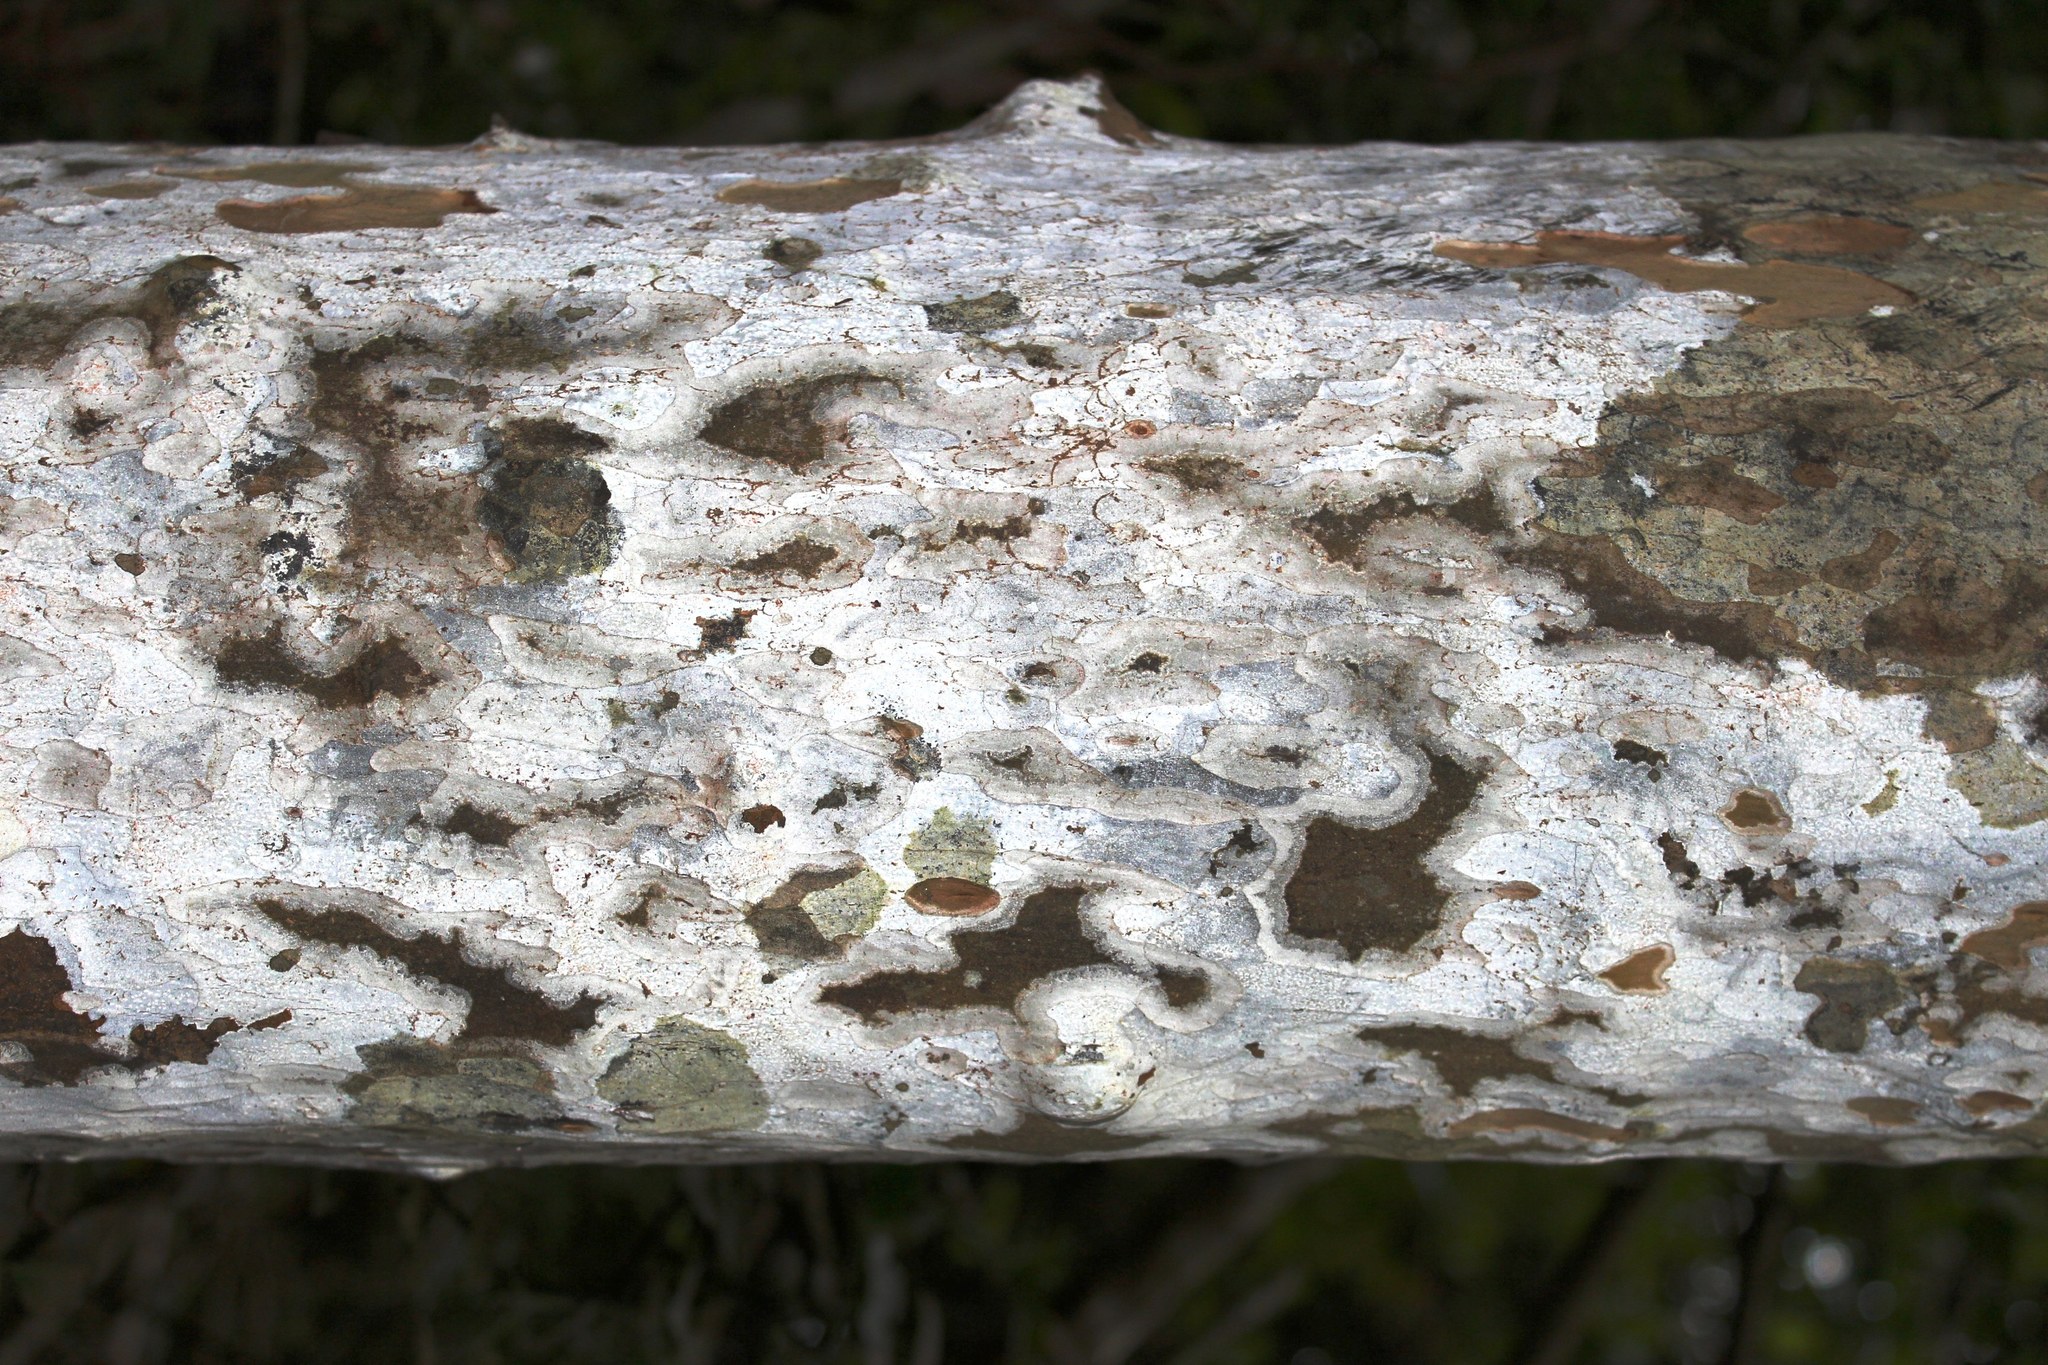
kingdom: Plantae
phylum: Tracheophyta
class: Magnoliopsida
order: Malpighiales
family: Ochnaceae
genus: Ochna
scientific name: Ochna arborea
